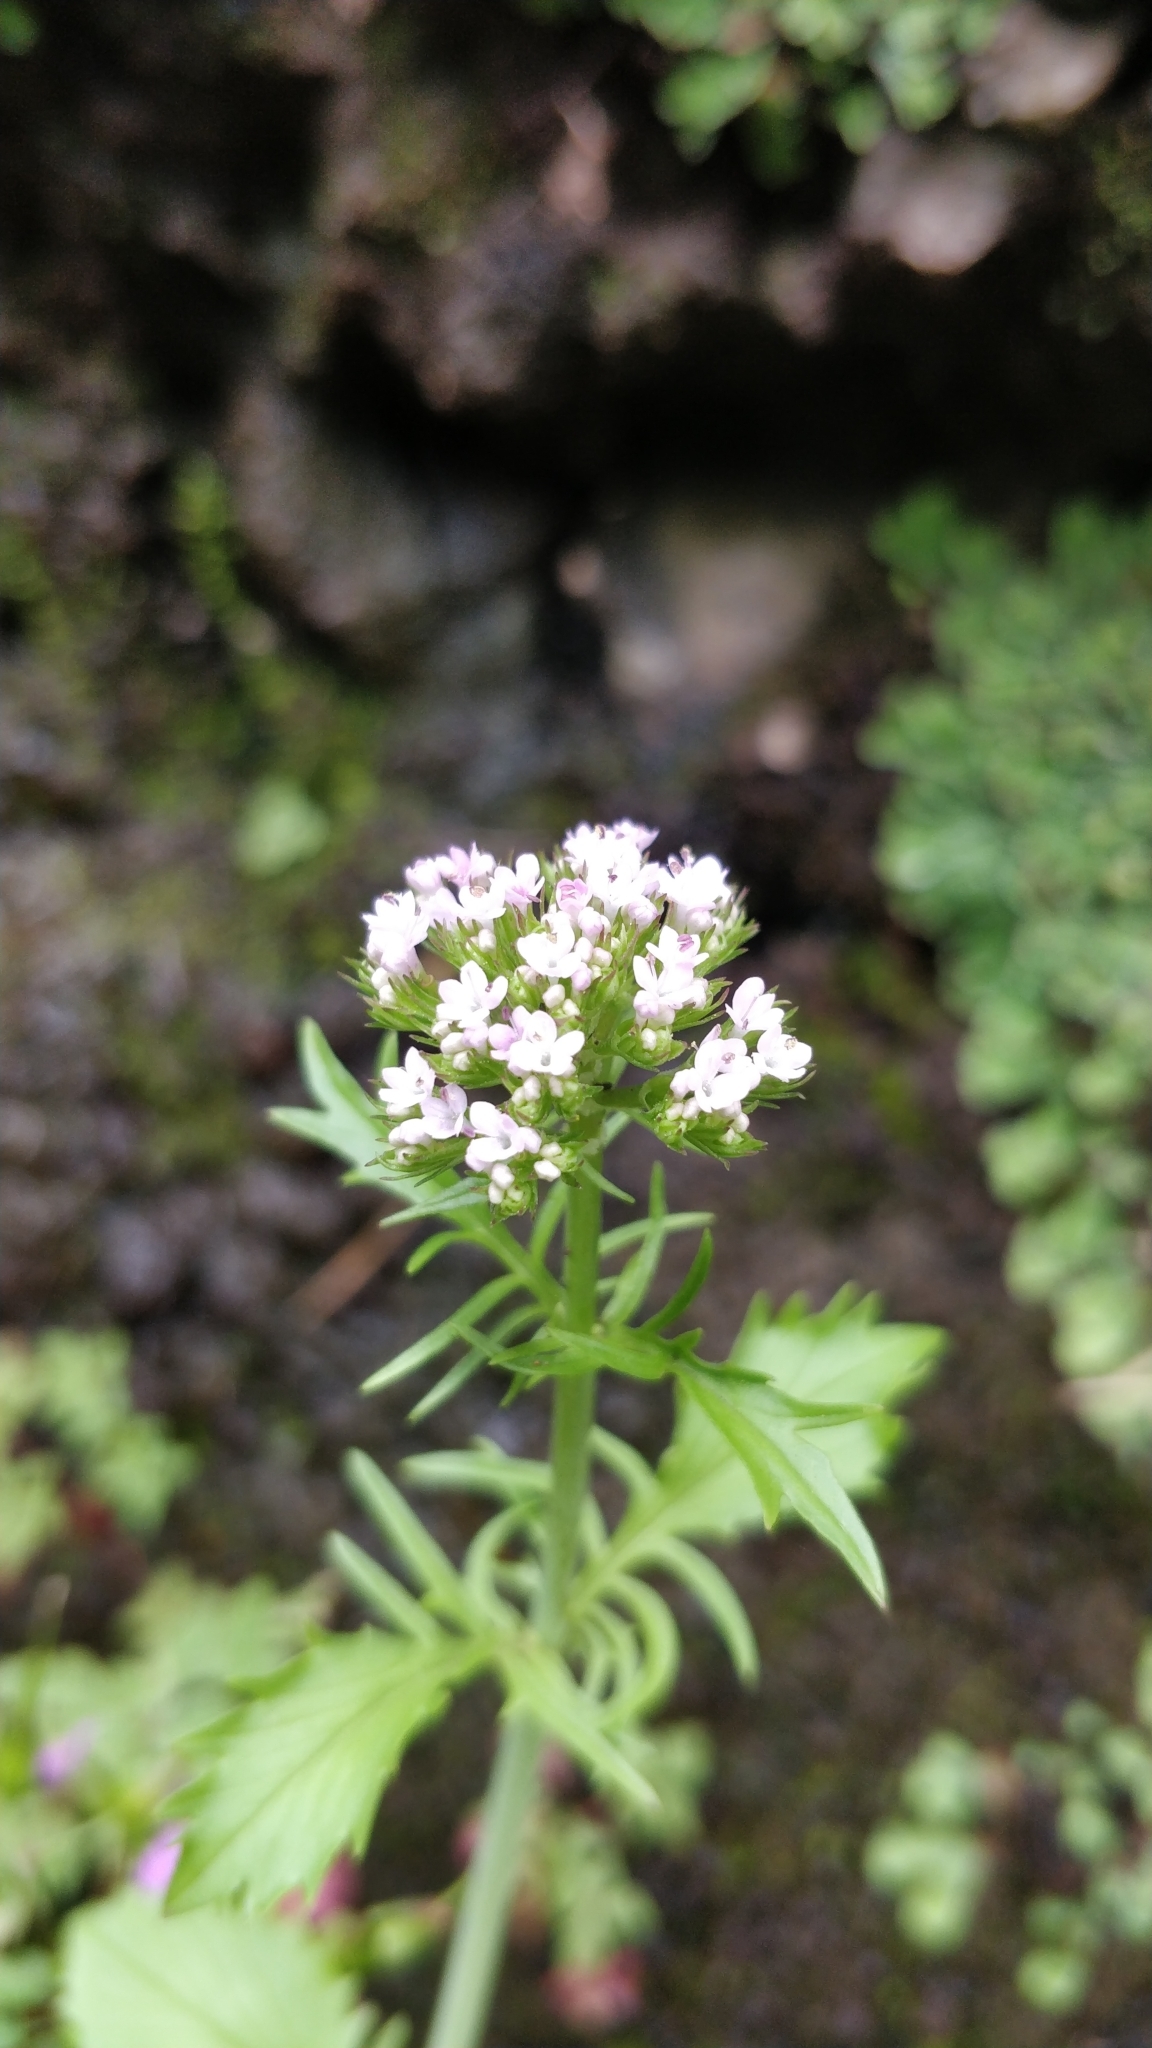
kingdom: Plantae
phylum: Tracheophyta
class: Magnoliopsida
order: Dipsacales
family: Caprifoliaceae
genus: Centranthus
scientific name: Centranthus calcitrapae
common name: Annual valerian
